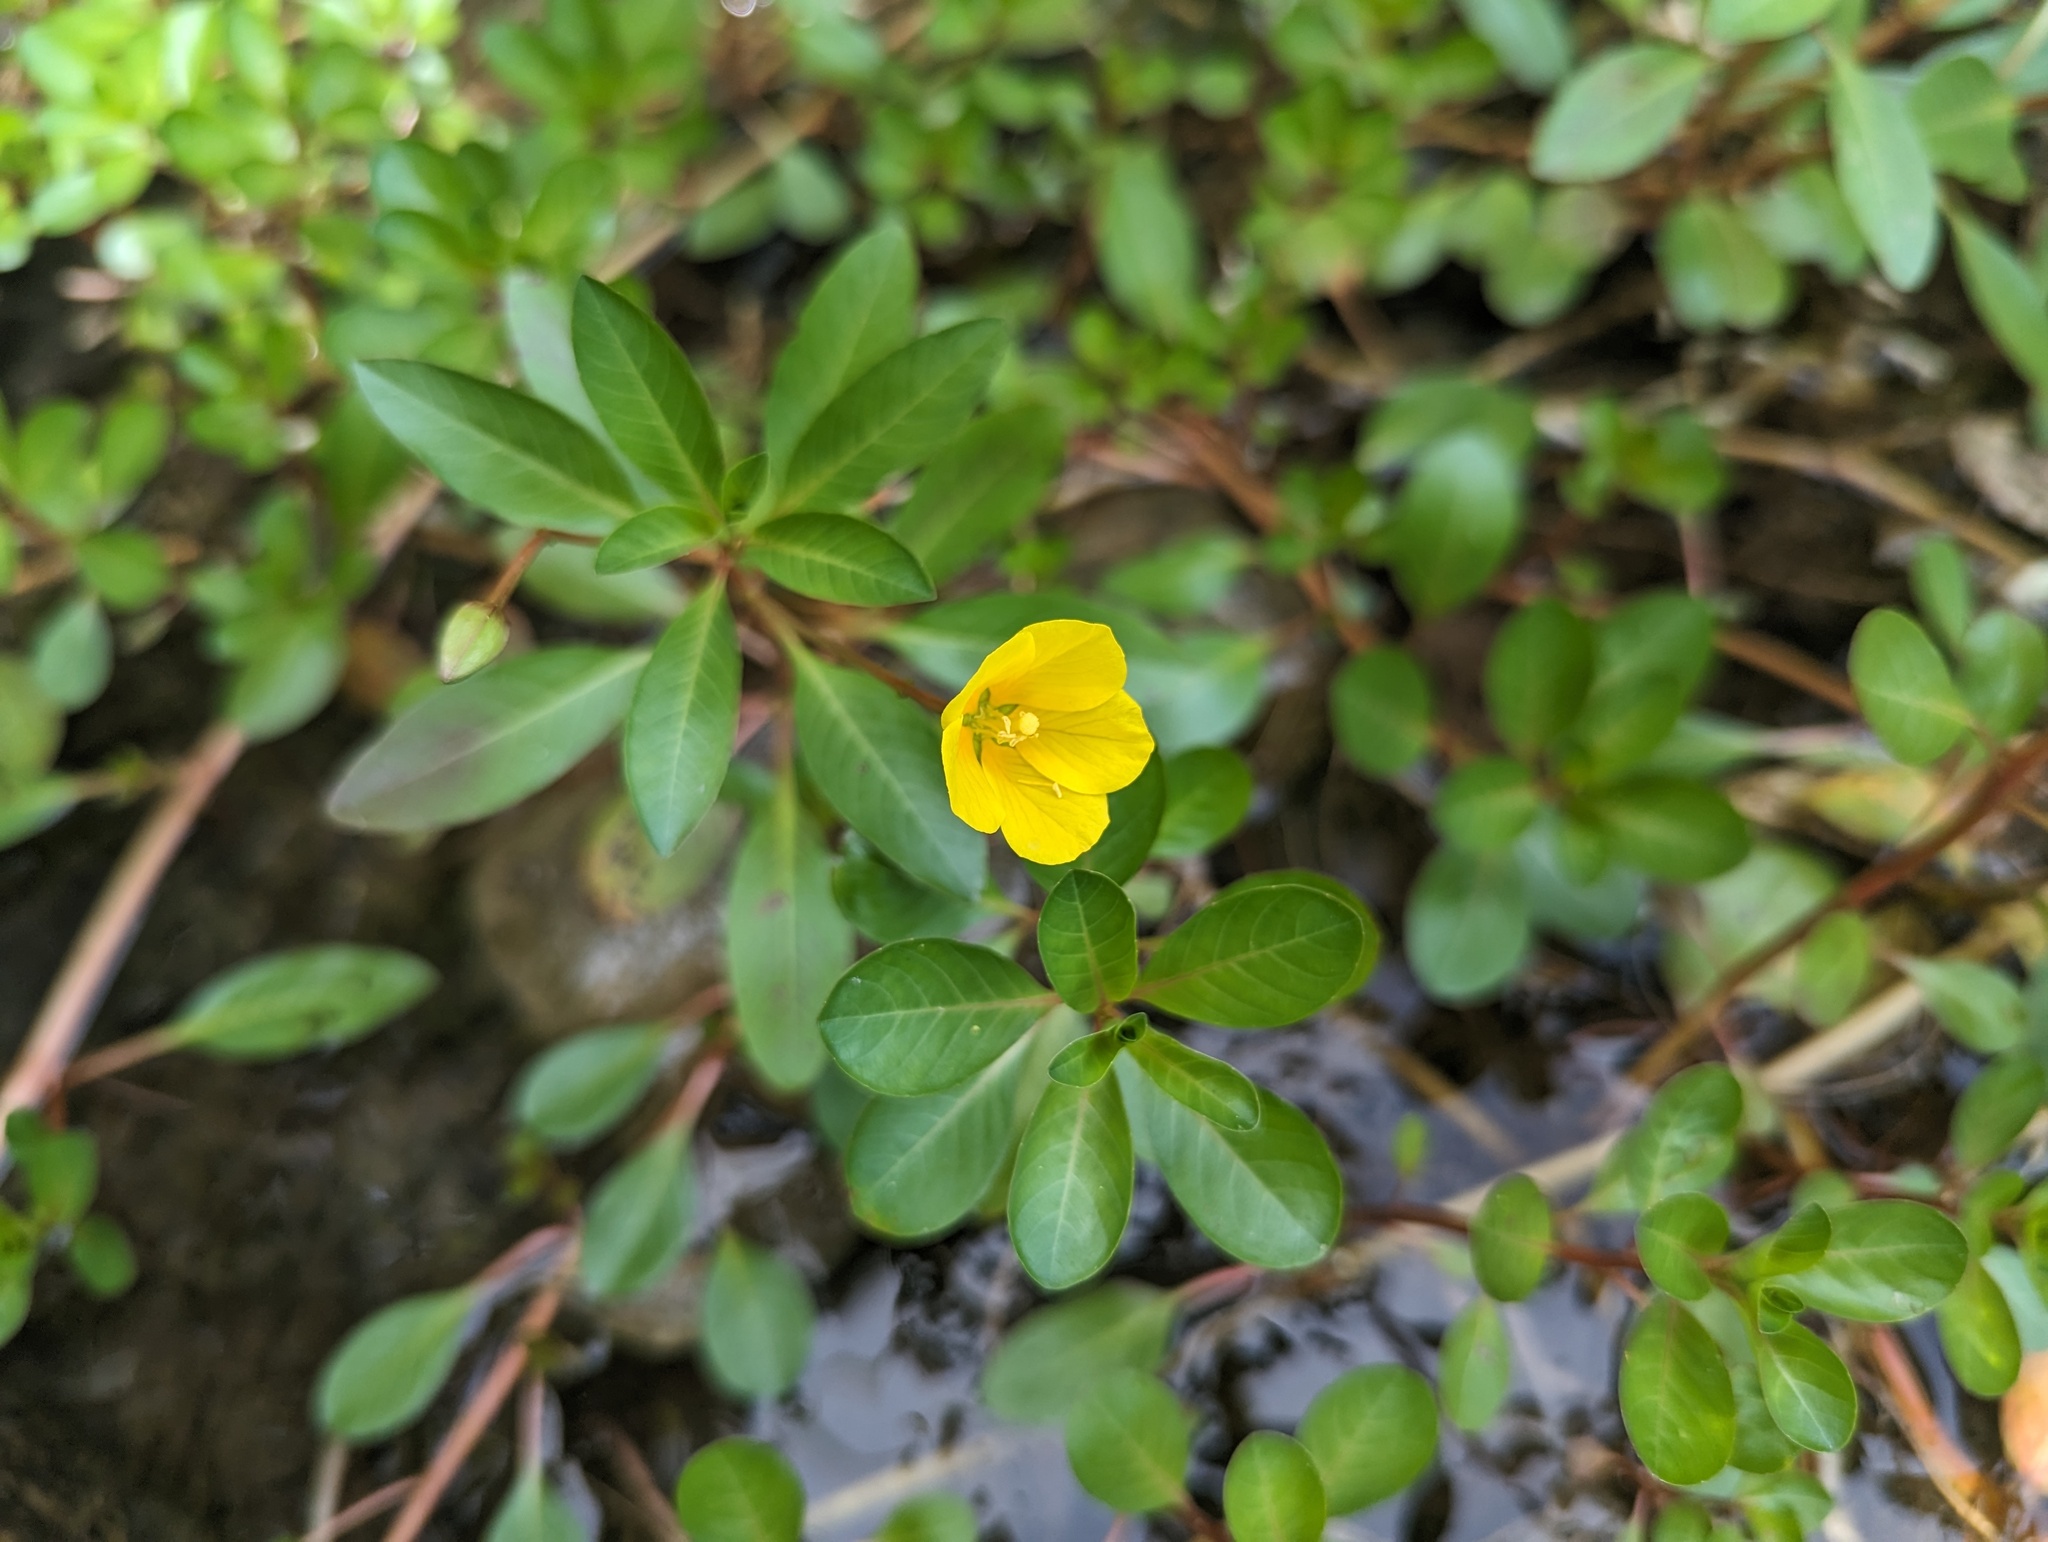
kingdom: Plantae
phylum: Tracheophyta
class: Magnoliopsida
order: Myrtales
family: Onagraceae
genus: Ludwigia
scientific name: Ludwigia peploides
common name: Floating primrose-willow
